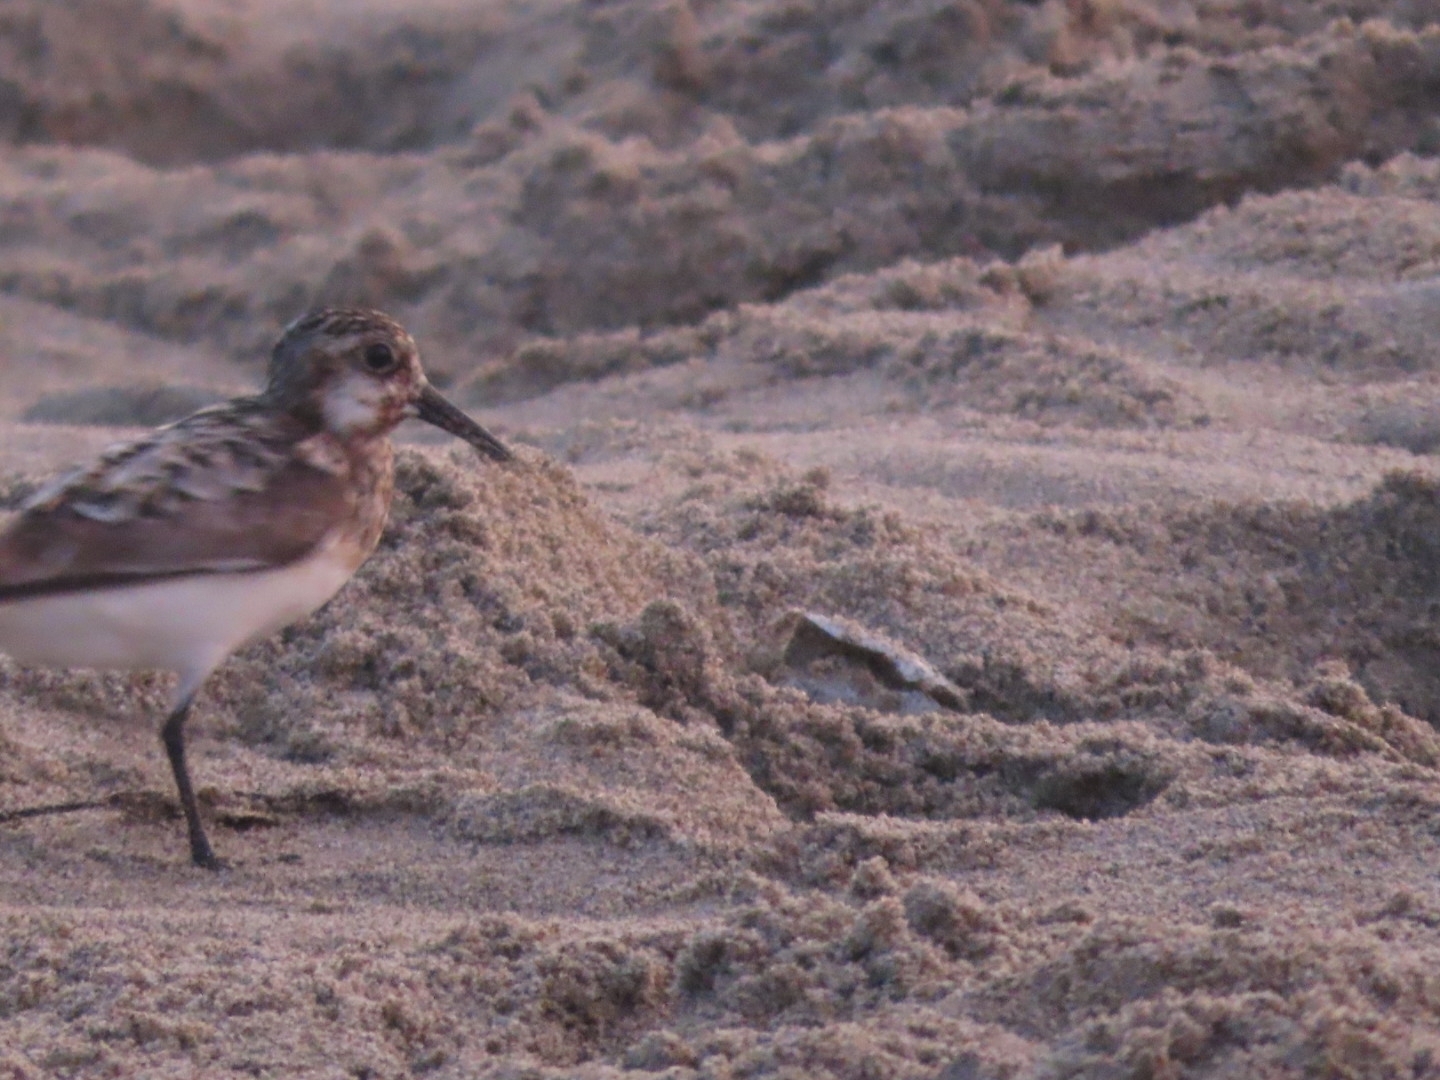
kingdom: Animalia
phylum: Chordata
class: Aves
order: Charadriiformes
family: Scolopacidae
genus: Calidris
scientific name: Calidris alba
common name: Sanderling
